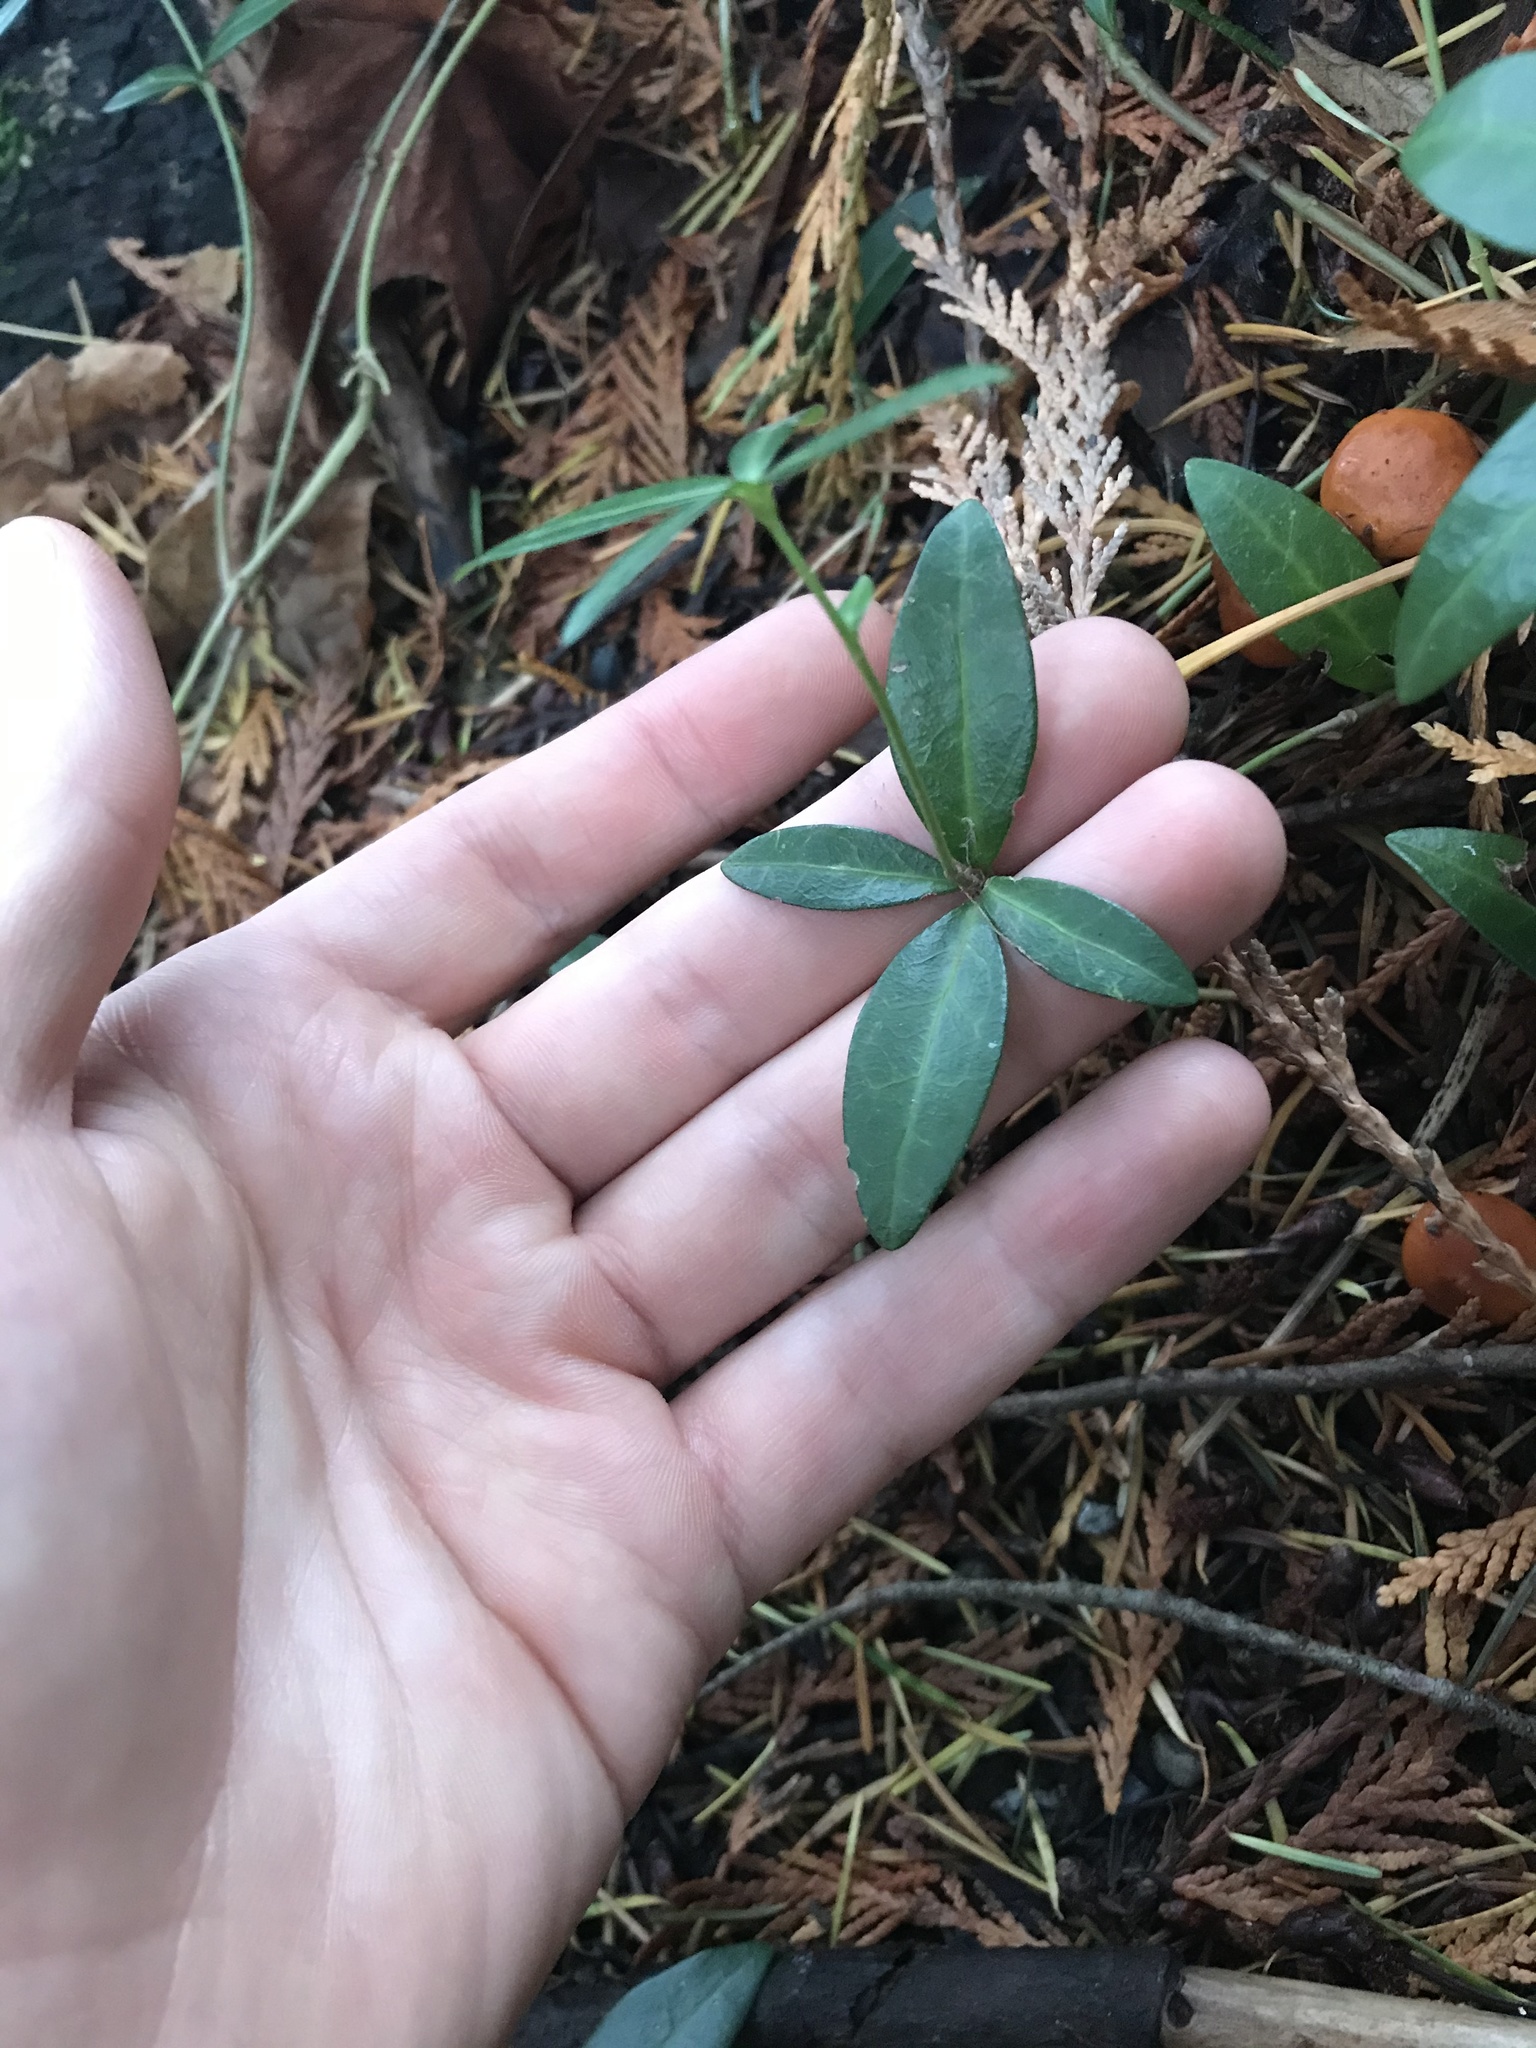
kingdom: Plantae
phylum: Tracheophyta
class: Magnoliopsida
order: Gentianales
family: Apocynaceae
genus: Vinca
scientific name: Vinca minor
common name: Lesser periwinkle
